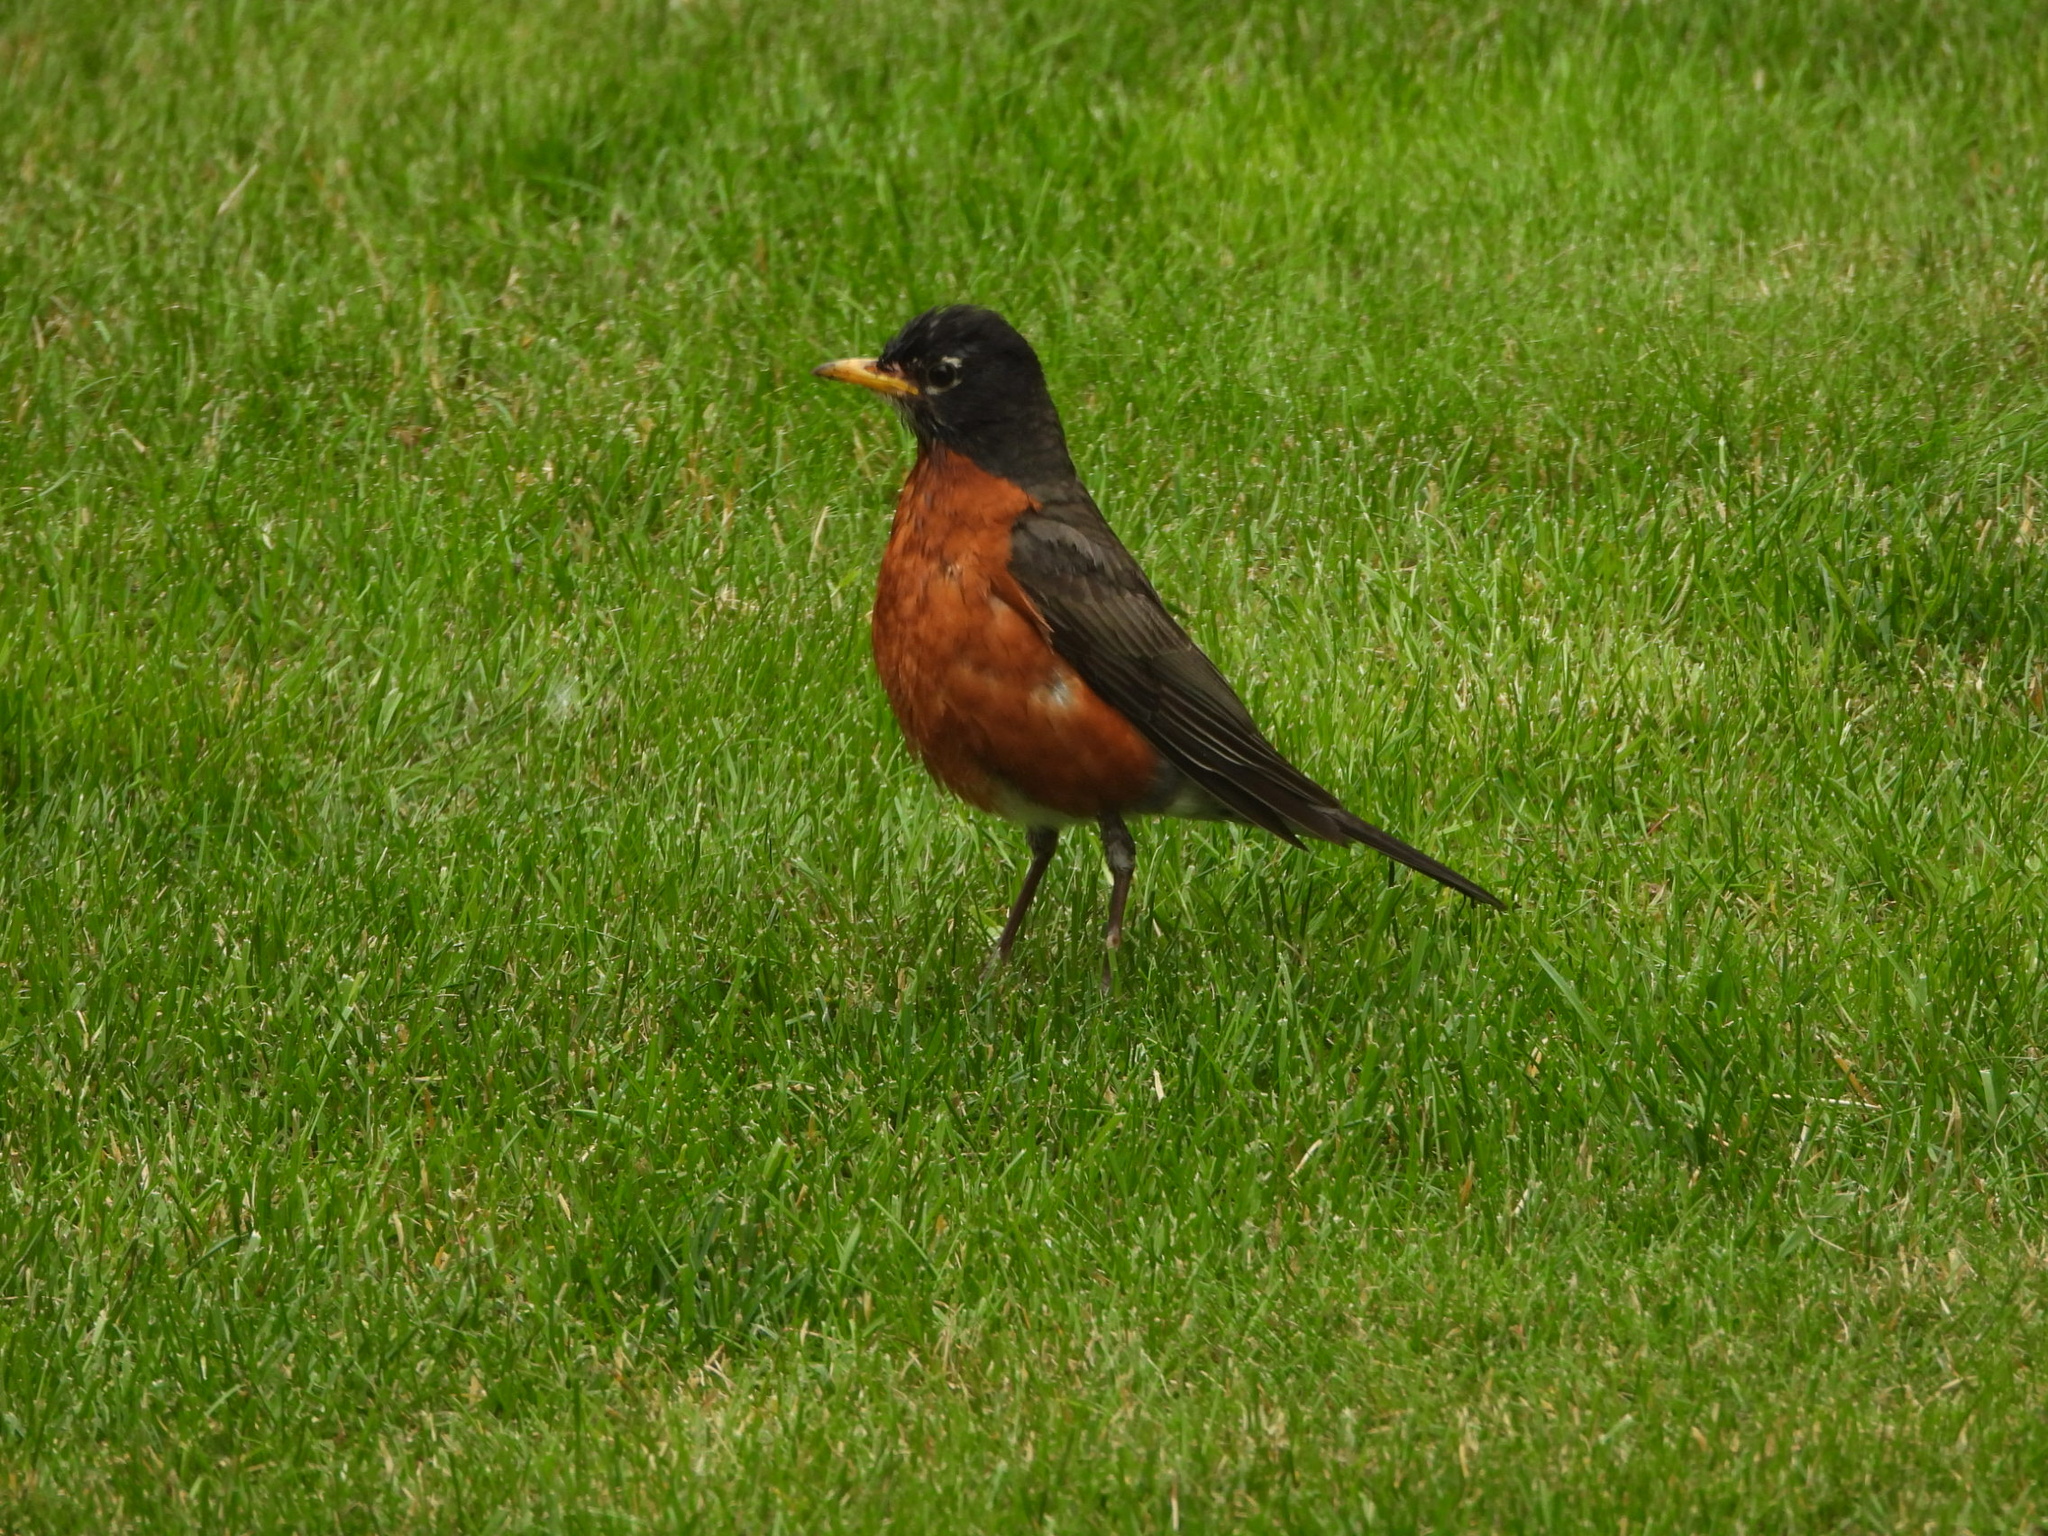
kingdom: Animalia
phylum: Chordata
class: Aves
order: Passeriformes
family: Turdidae
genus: Turdus
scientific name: Turdus migratorius
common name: American robin
